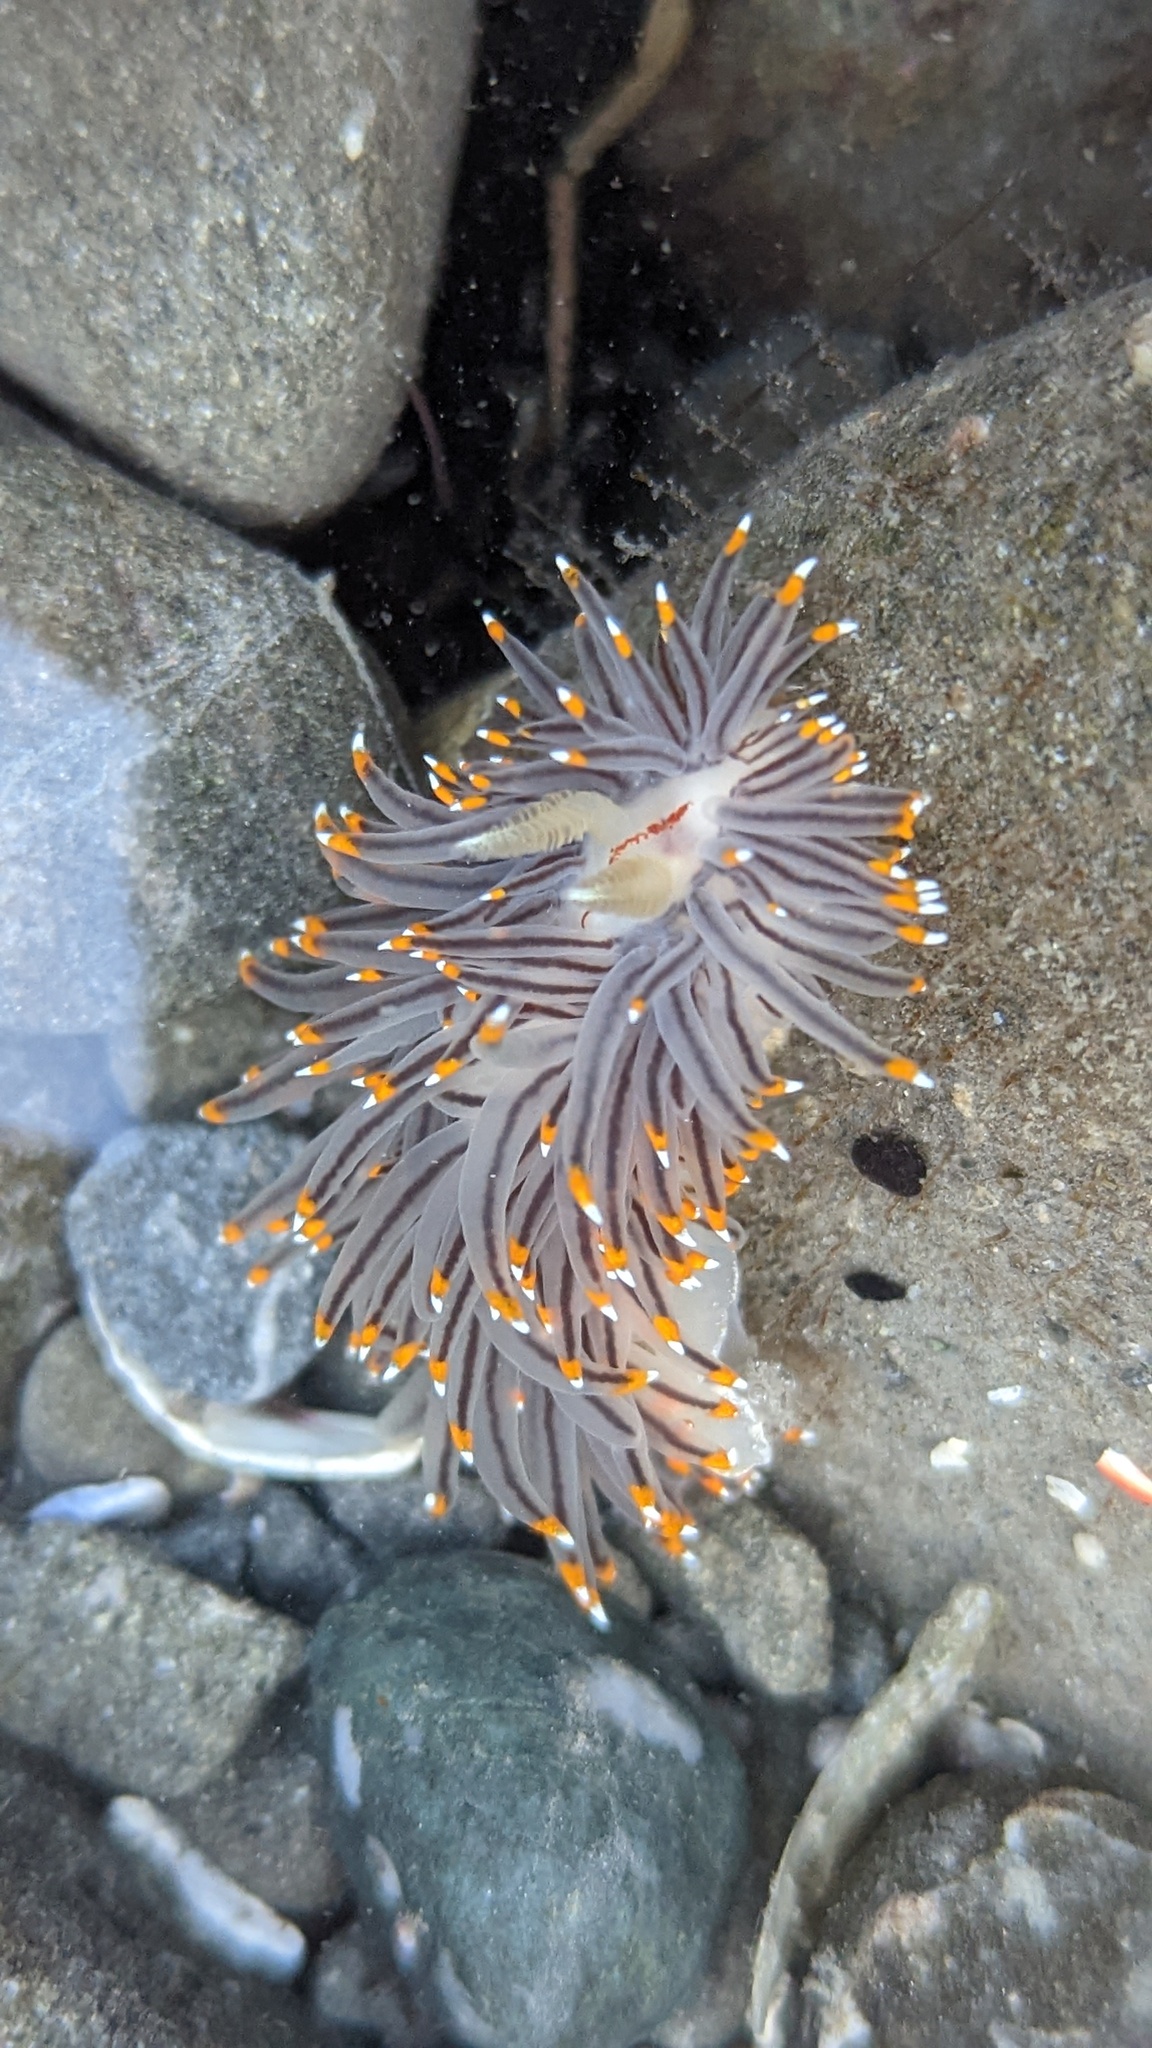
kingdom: Animalia
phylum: Mollusca
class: Gastropoda
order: Nudibranchia
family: Janolidae
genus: Antiopella
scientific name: Antiopella fusca
